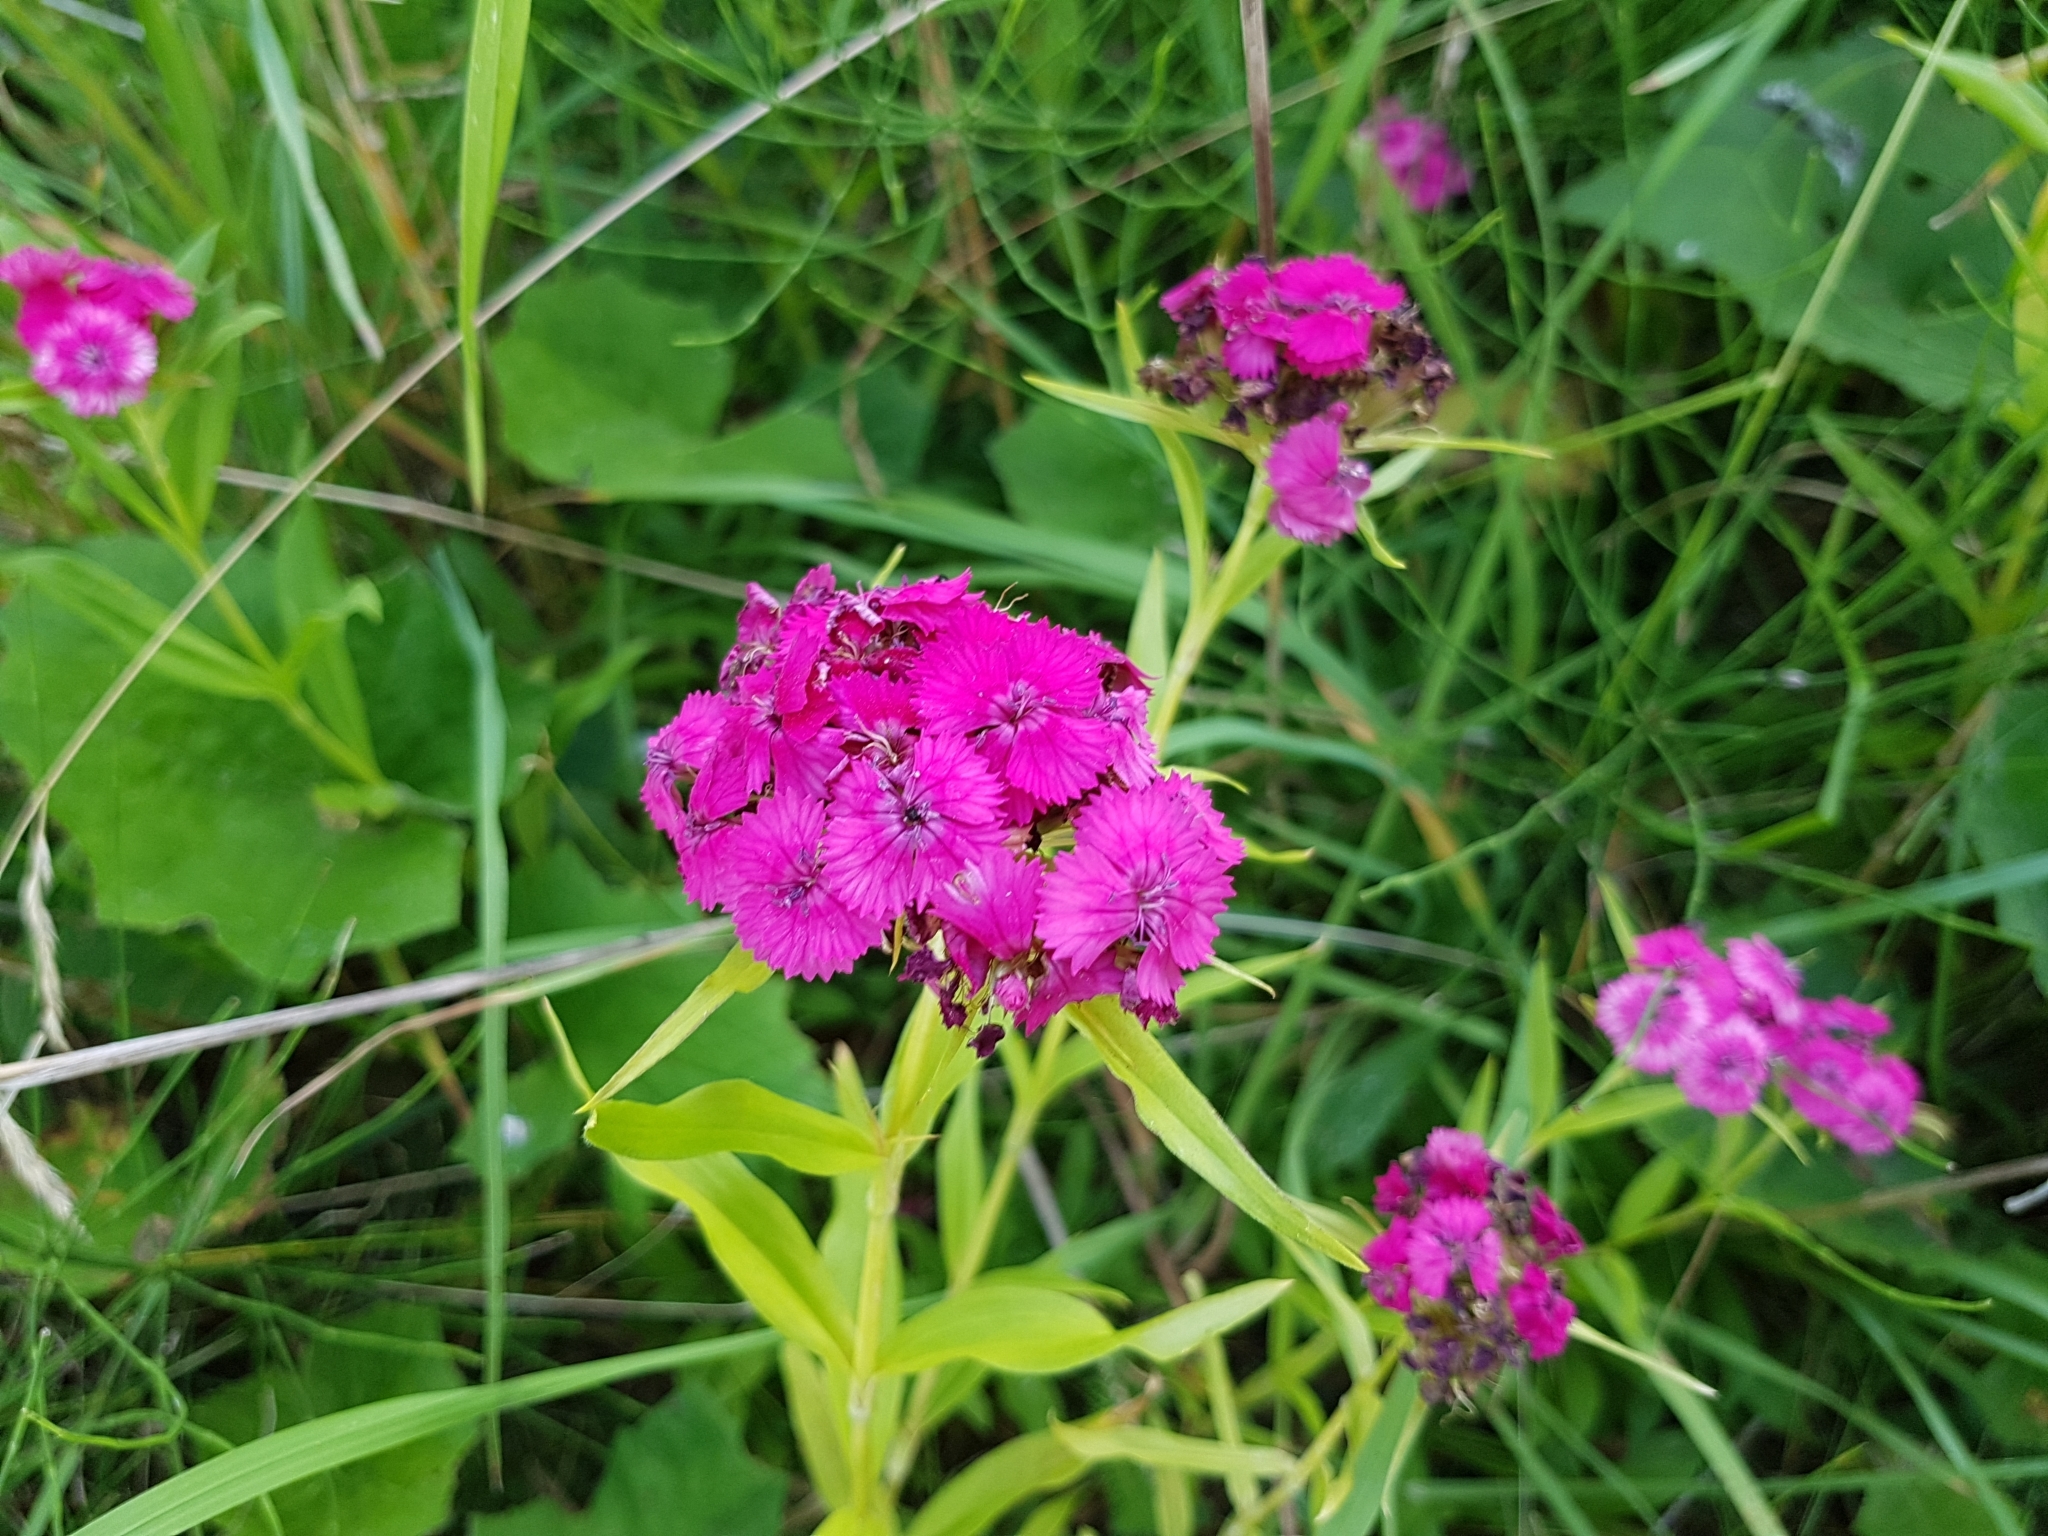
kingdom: Plantae
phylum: Tracheophyta
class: Magnoliopsida
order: Caryophyllales
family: Caryophyllaceae
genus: Dianthus
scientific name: Dianthus barbatus
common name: Sweet-william
